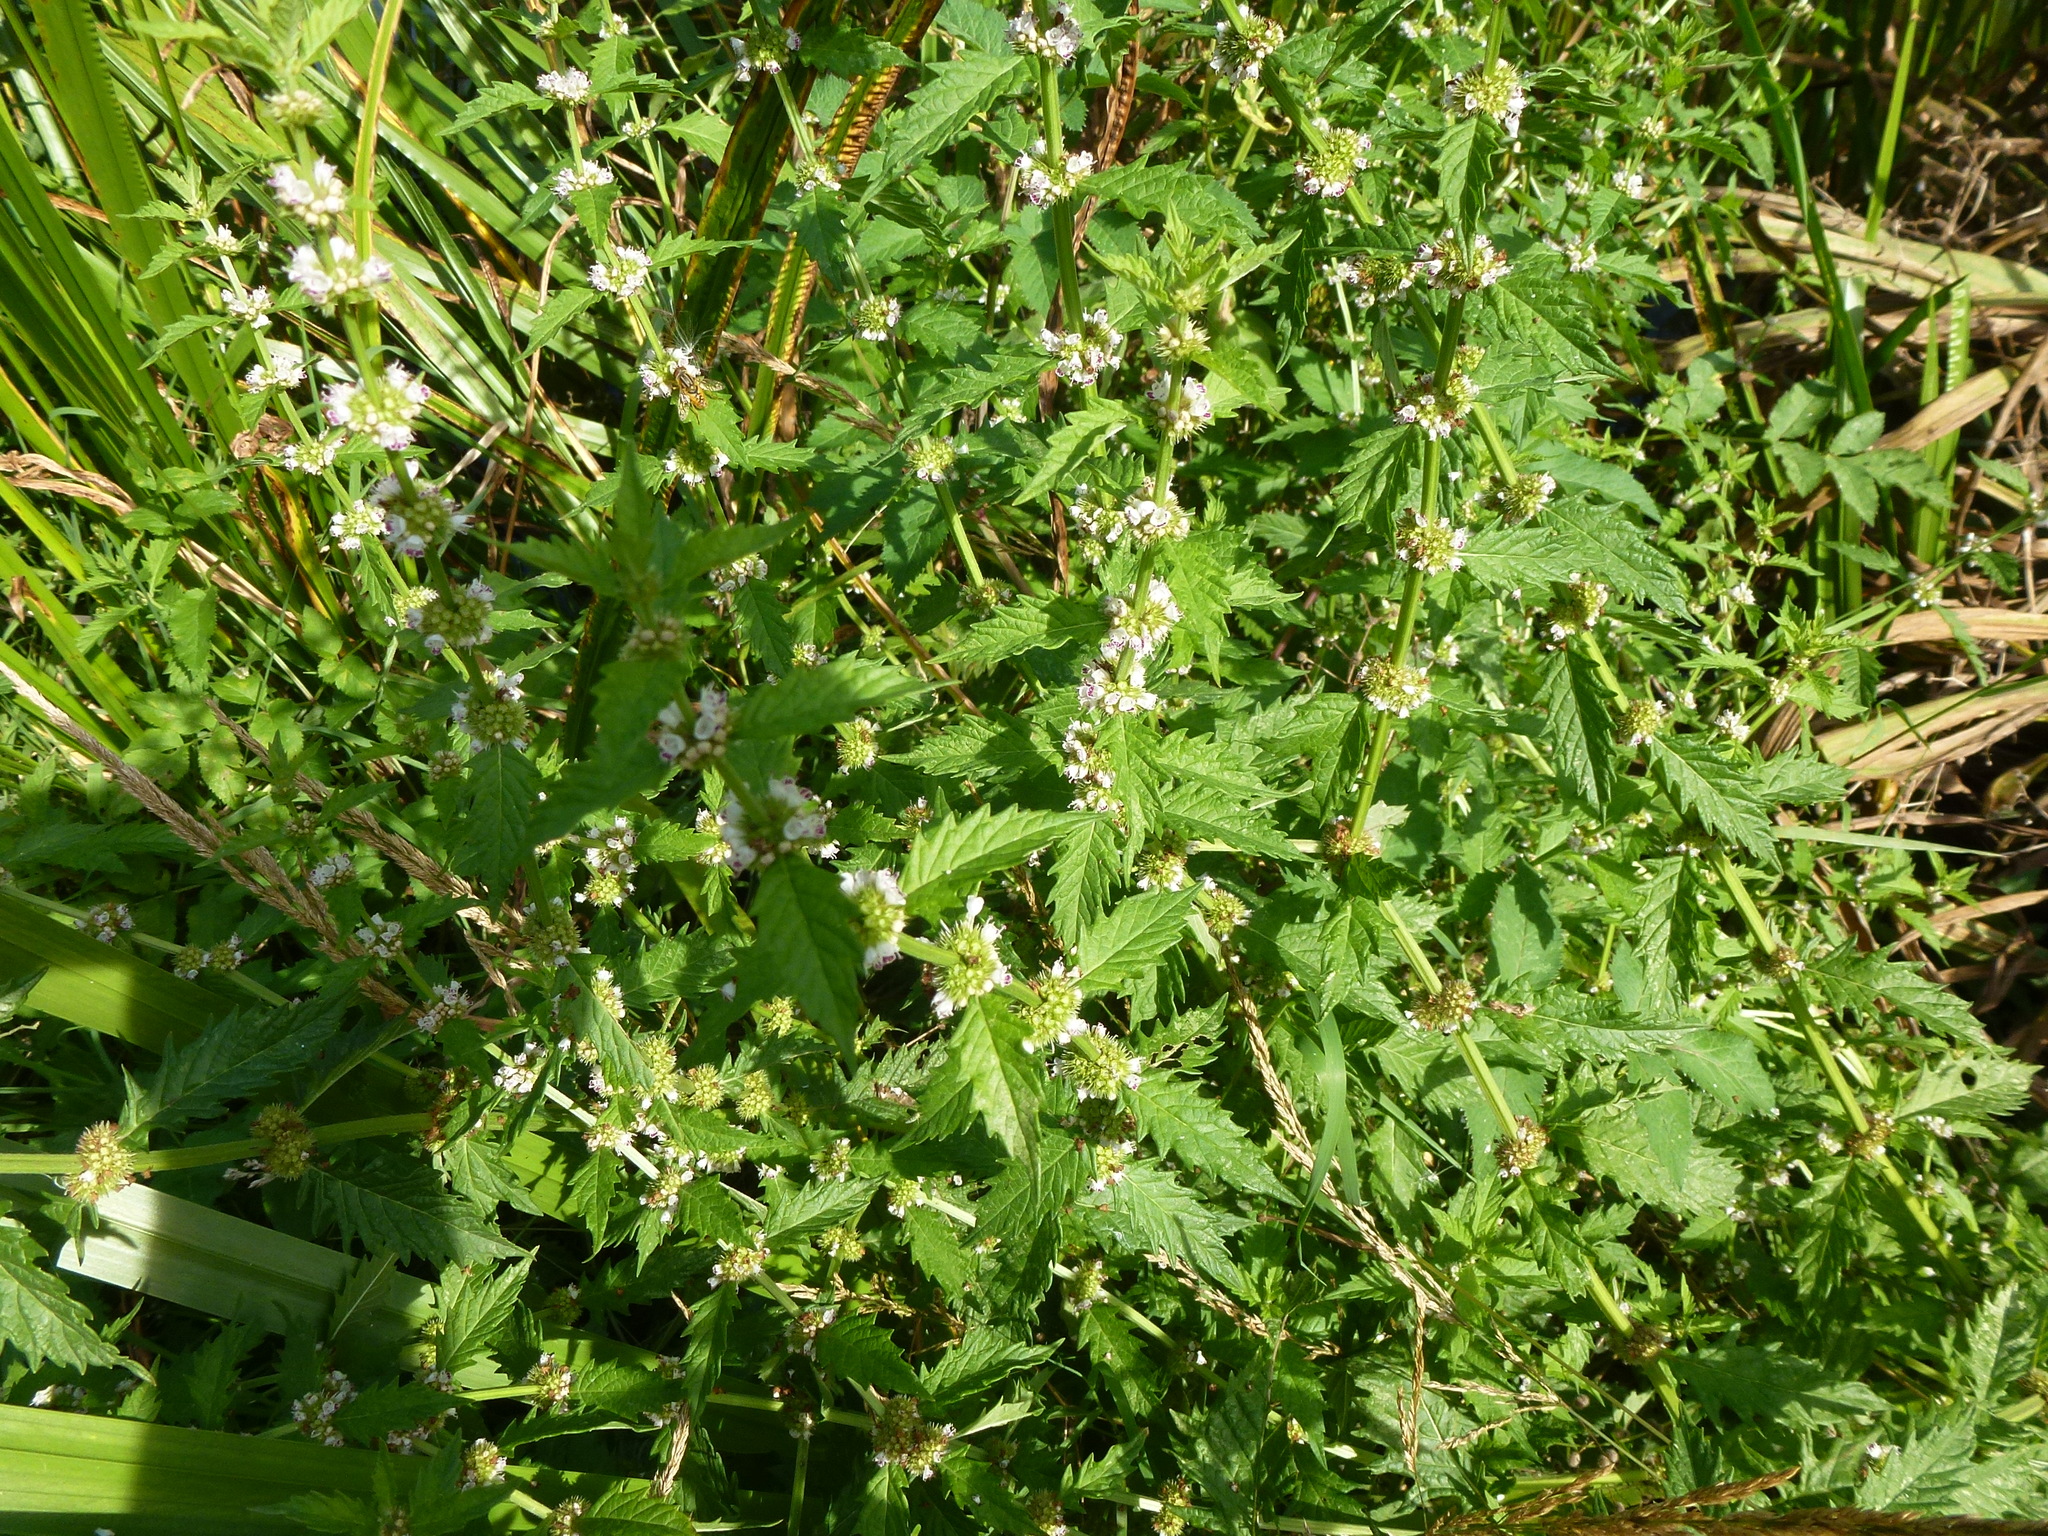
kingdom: Plantae
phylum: Tracheophyta
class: Magnoliopsida
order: Lamiales
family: Lamiaceae
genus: Lycopus
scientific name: Lycopus europaeus
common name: European bugleweed
